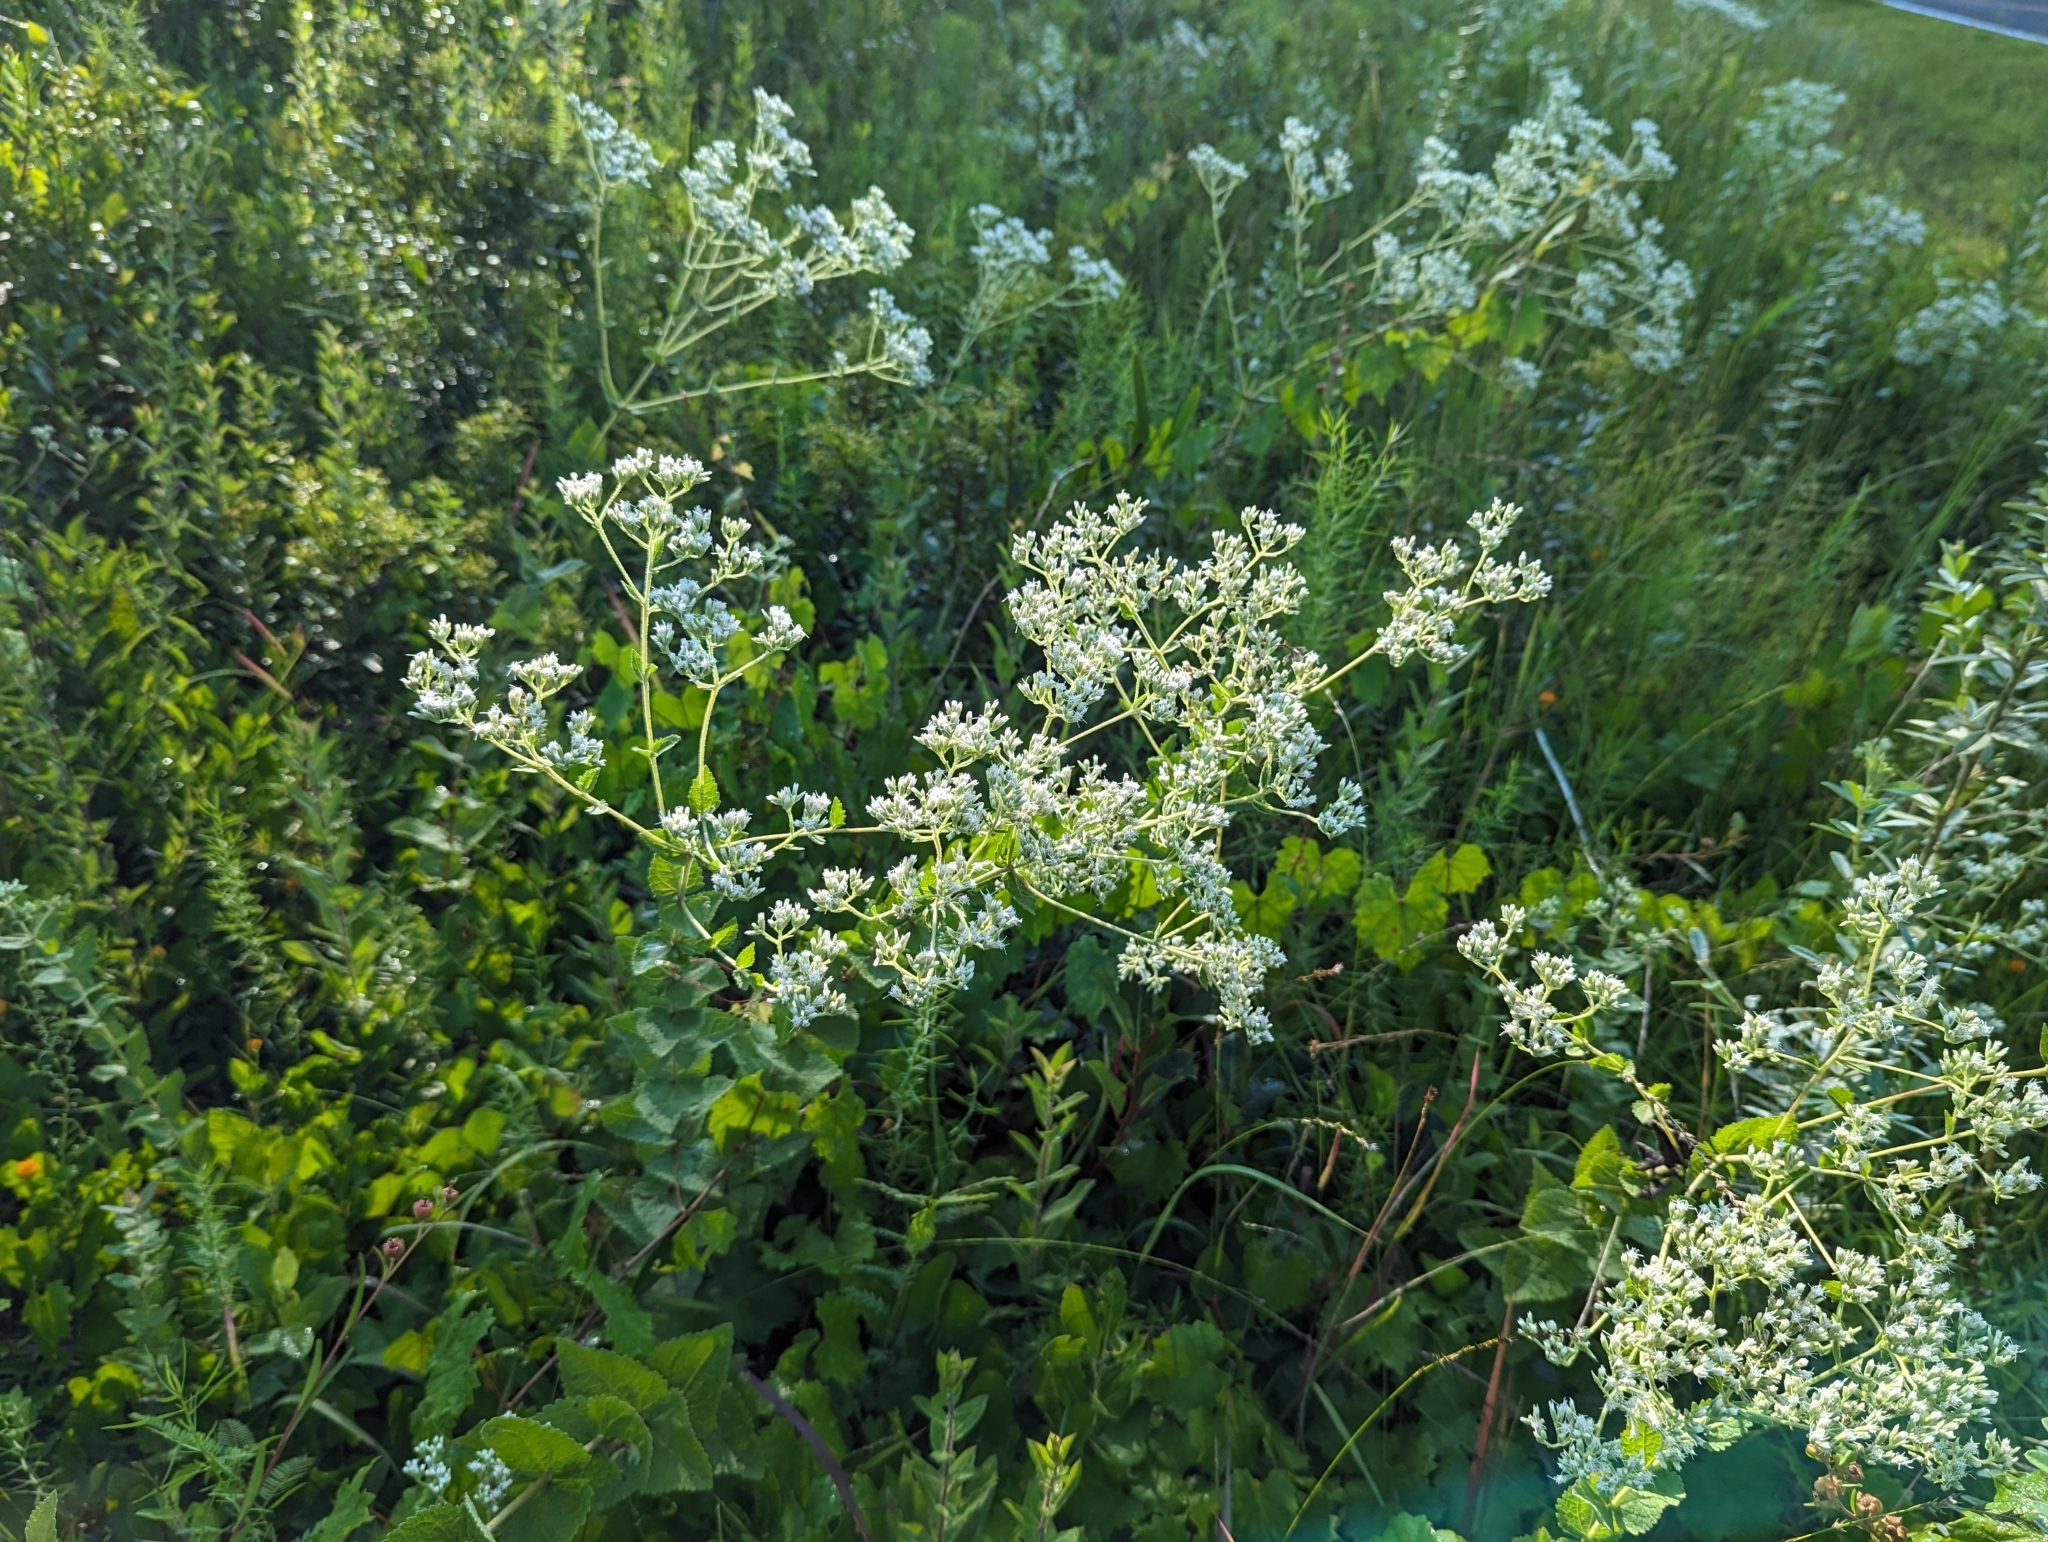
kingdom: Plantae
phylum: Tracheophyta
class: Magnoliopsida
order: Asterales
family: Asteraceae
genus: Eupatorium
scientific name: Eupatorium rotundifolium
